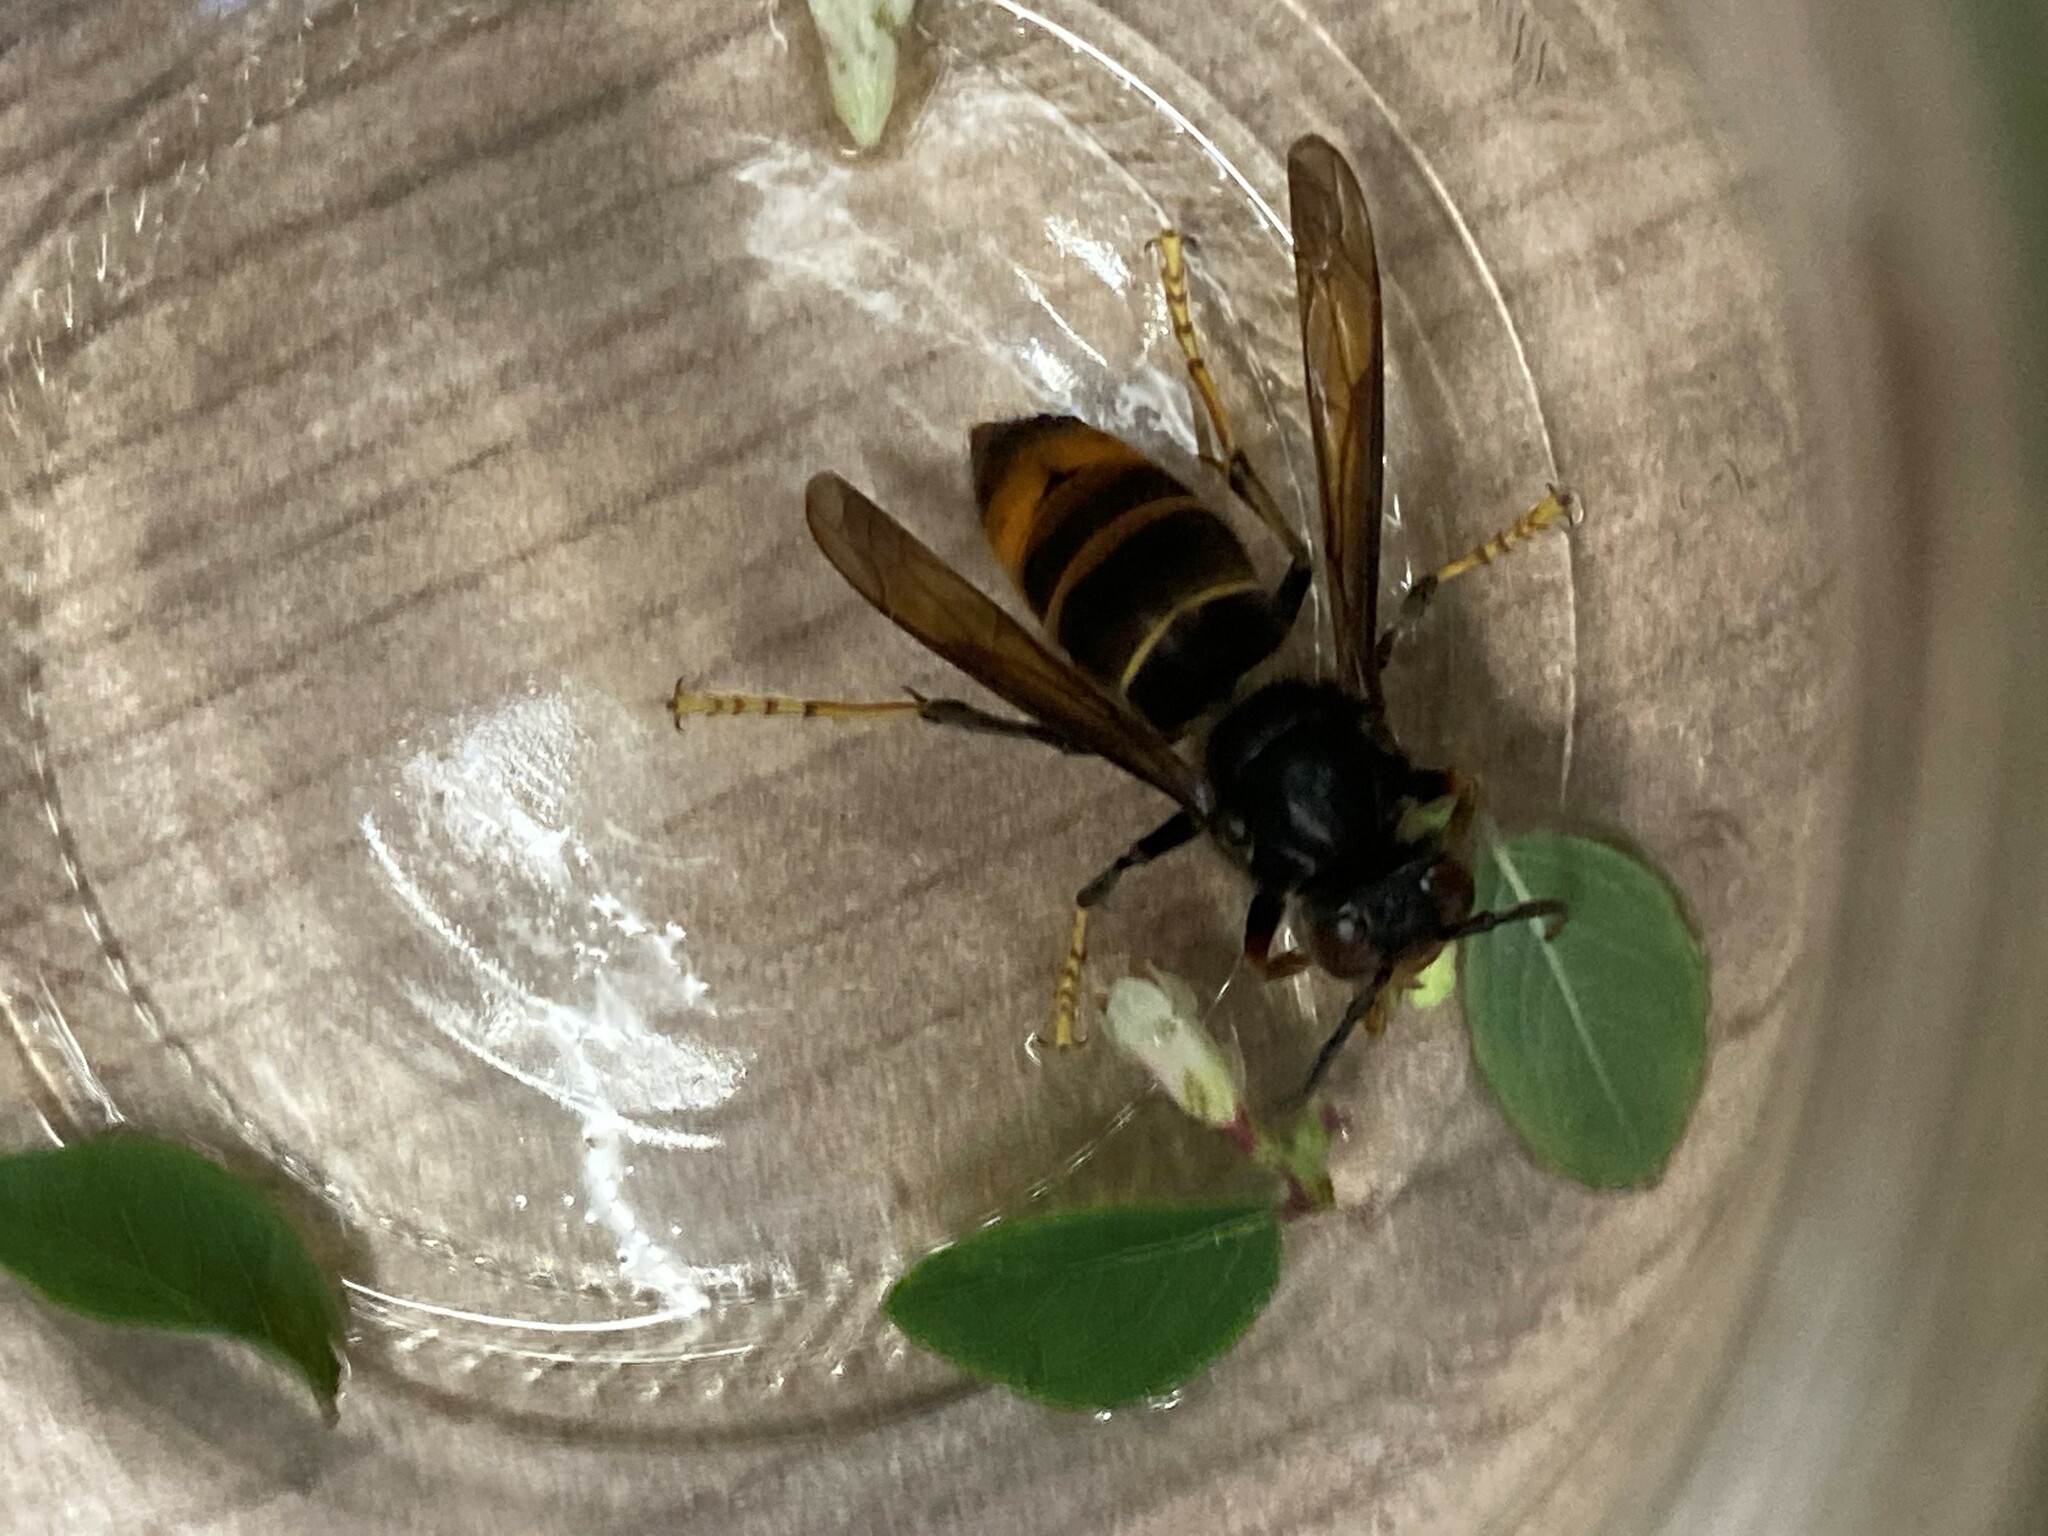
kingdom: Animalia
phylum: Arthropoda
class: Insecta
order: Hymenoptera
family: Vespidae
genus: Vespa
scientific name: Vespa velutina
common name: Asian hornet
